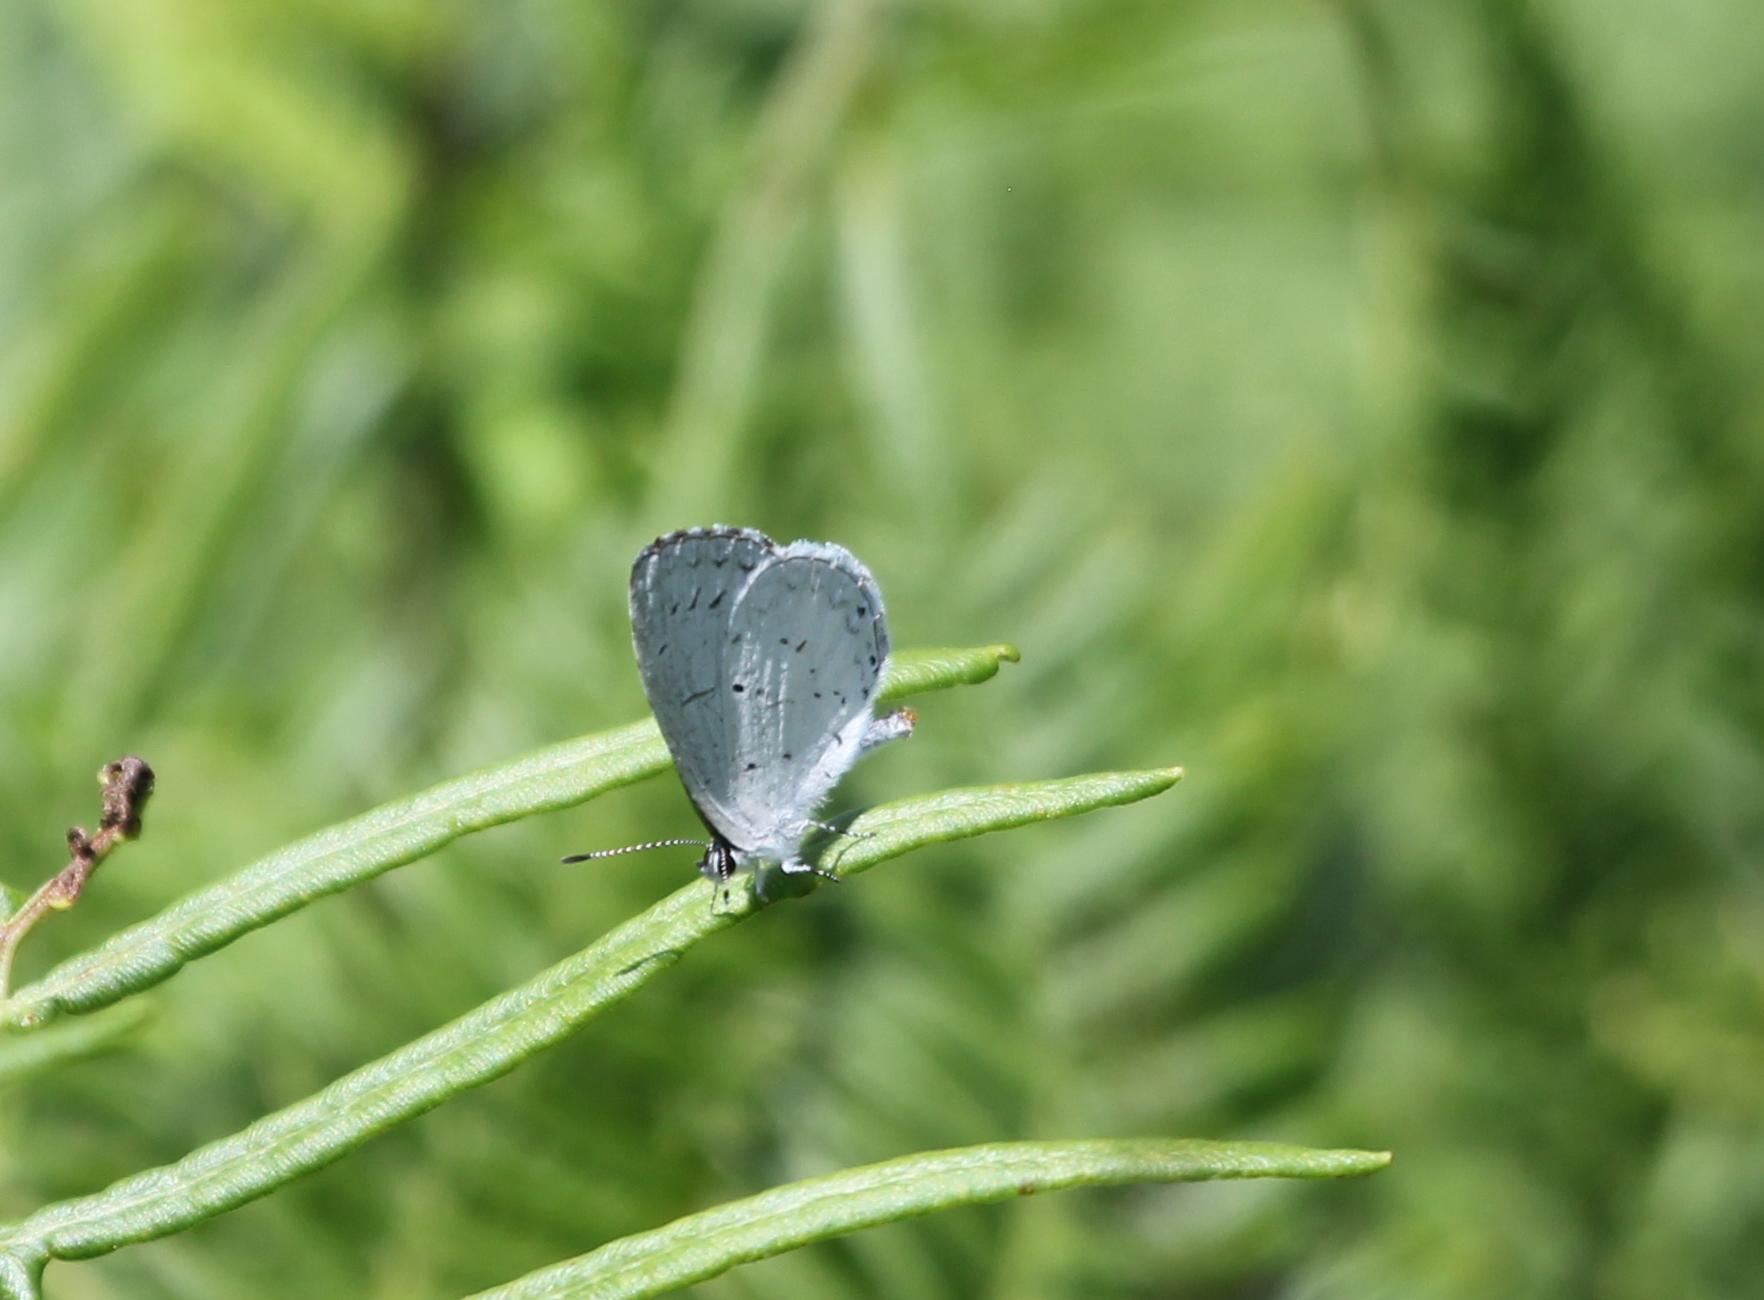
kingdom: Animalia
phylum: Arthropoda
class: Insecta
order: Lepidoptera
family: Lycaenidae
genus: Celastrina
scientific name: Celastrina ladon
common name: Spring azure
